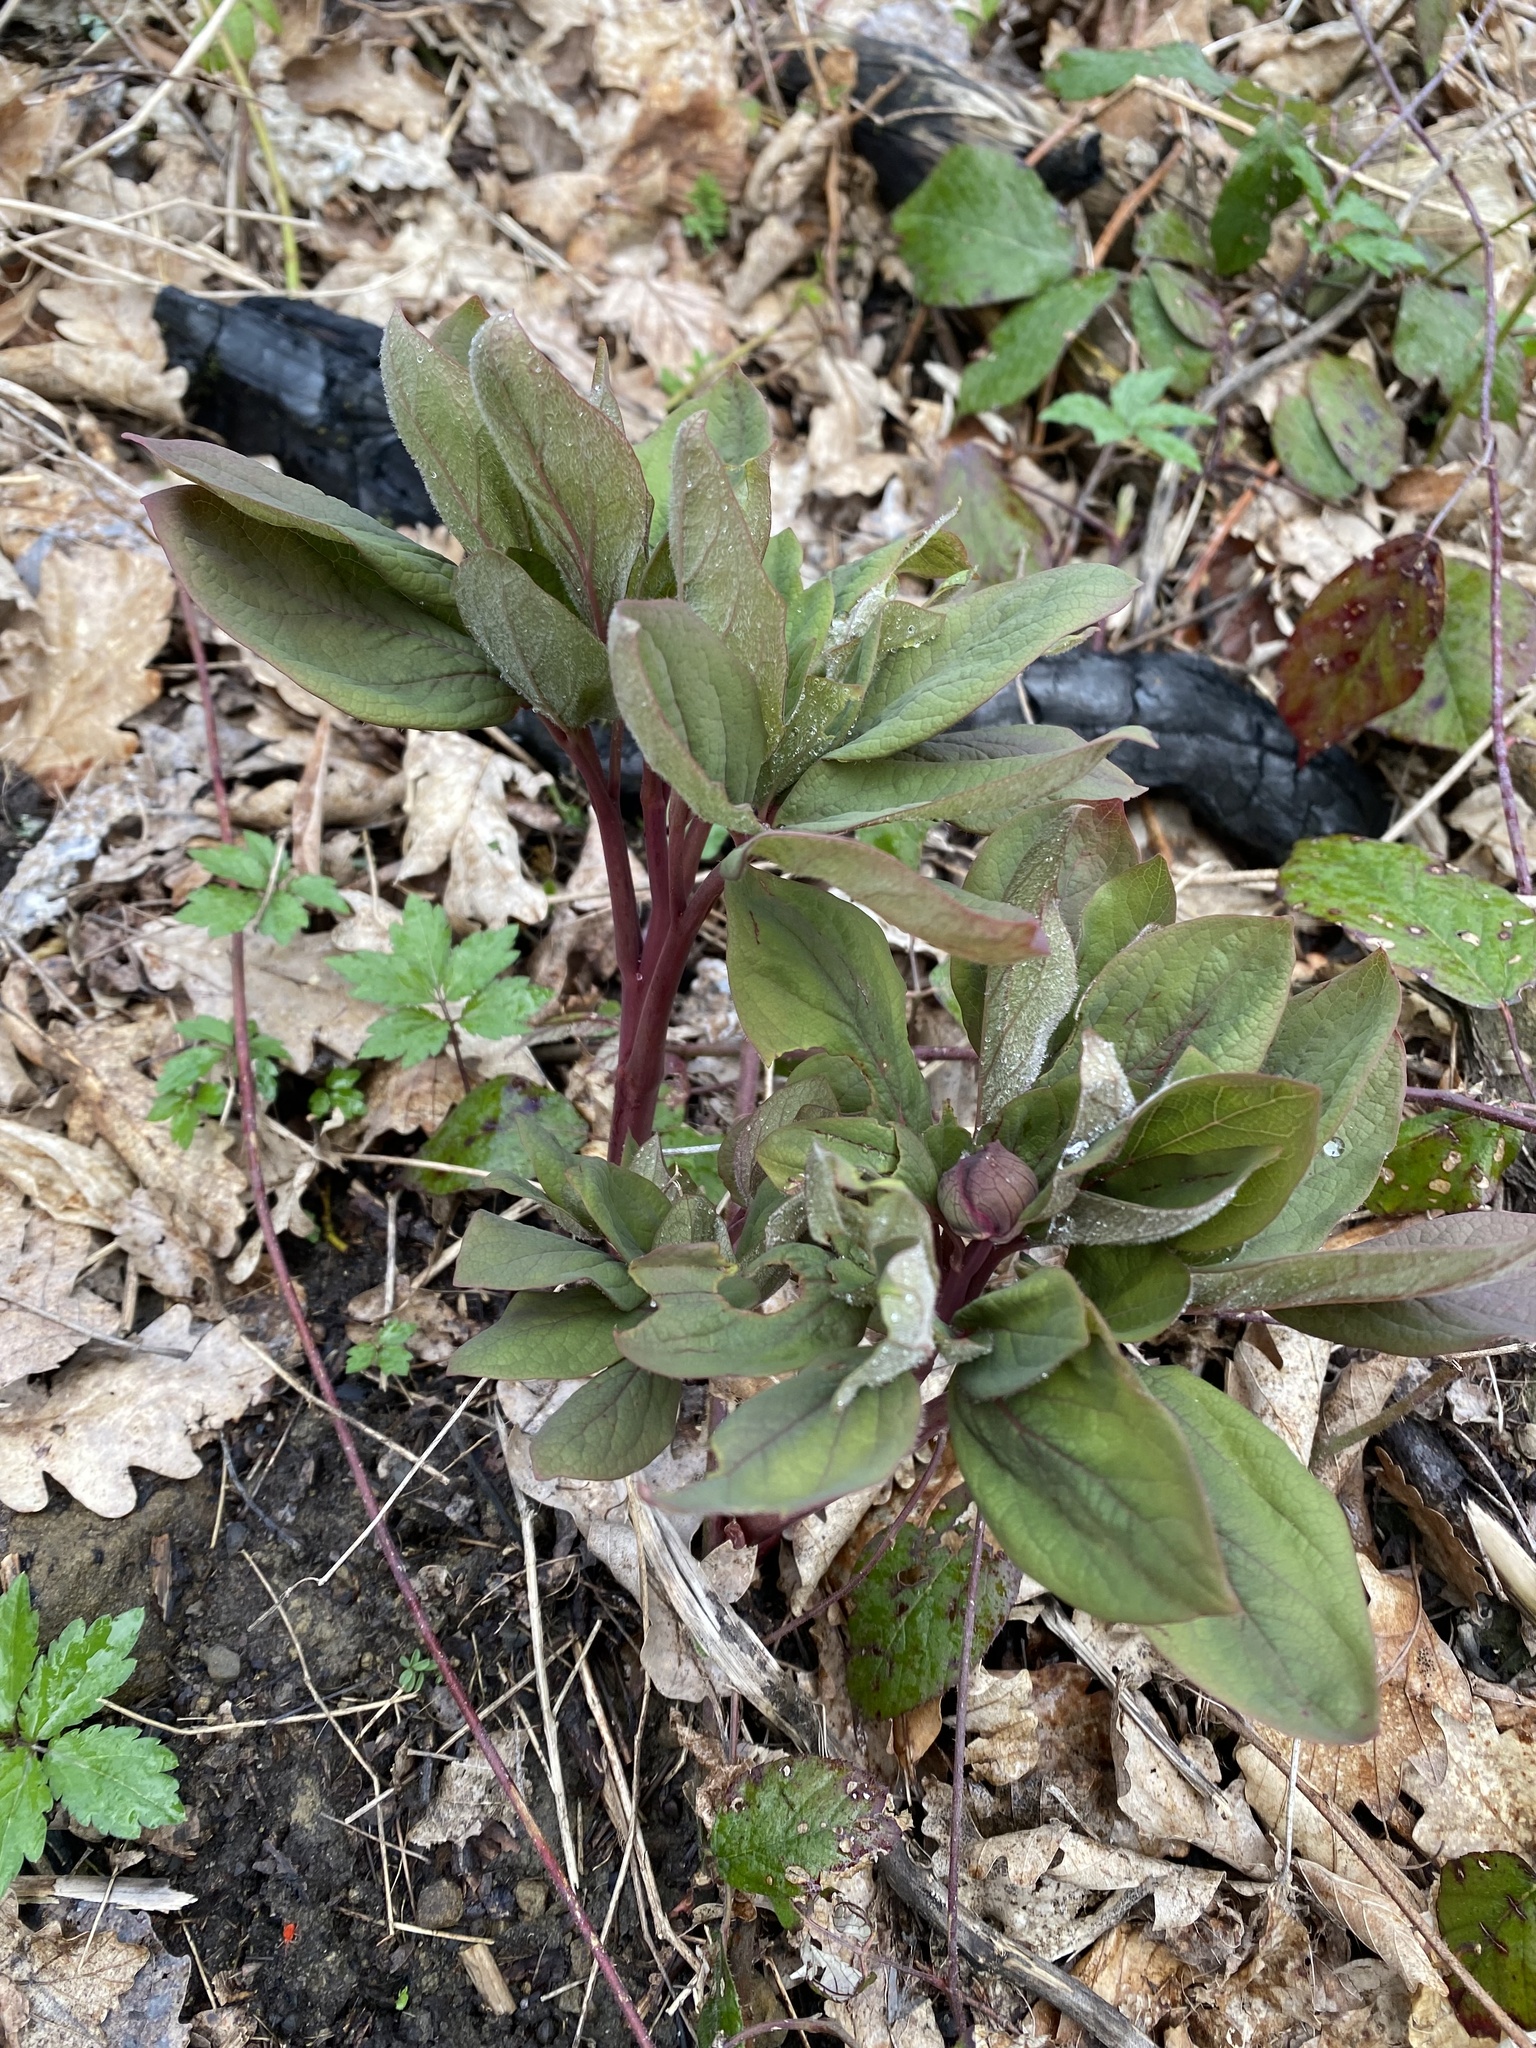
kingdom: Plantae
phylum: Tracheophyta
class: Magnoliopsida
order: Saxifragales
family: Paeoniaceae
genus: Paeonia
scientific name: Paeonia caucasica
